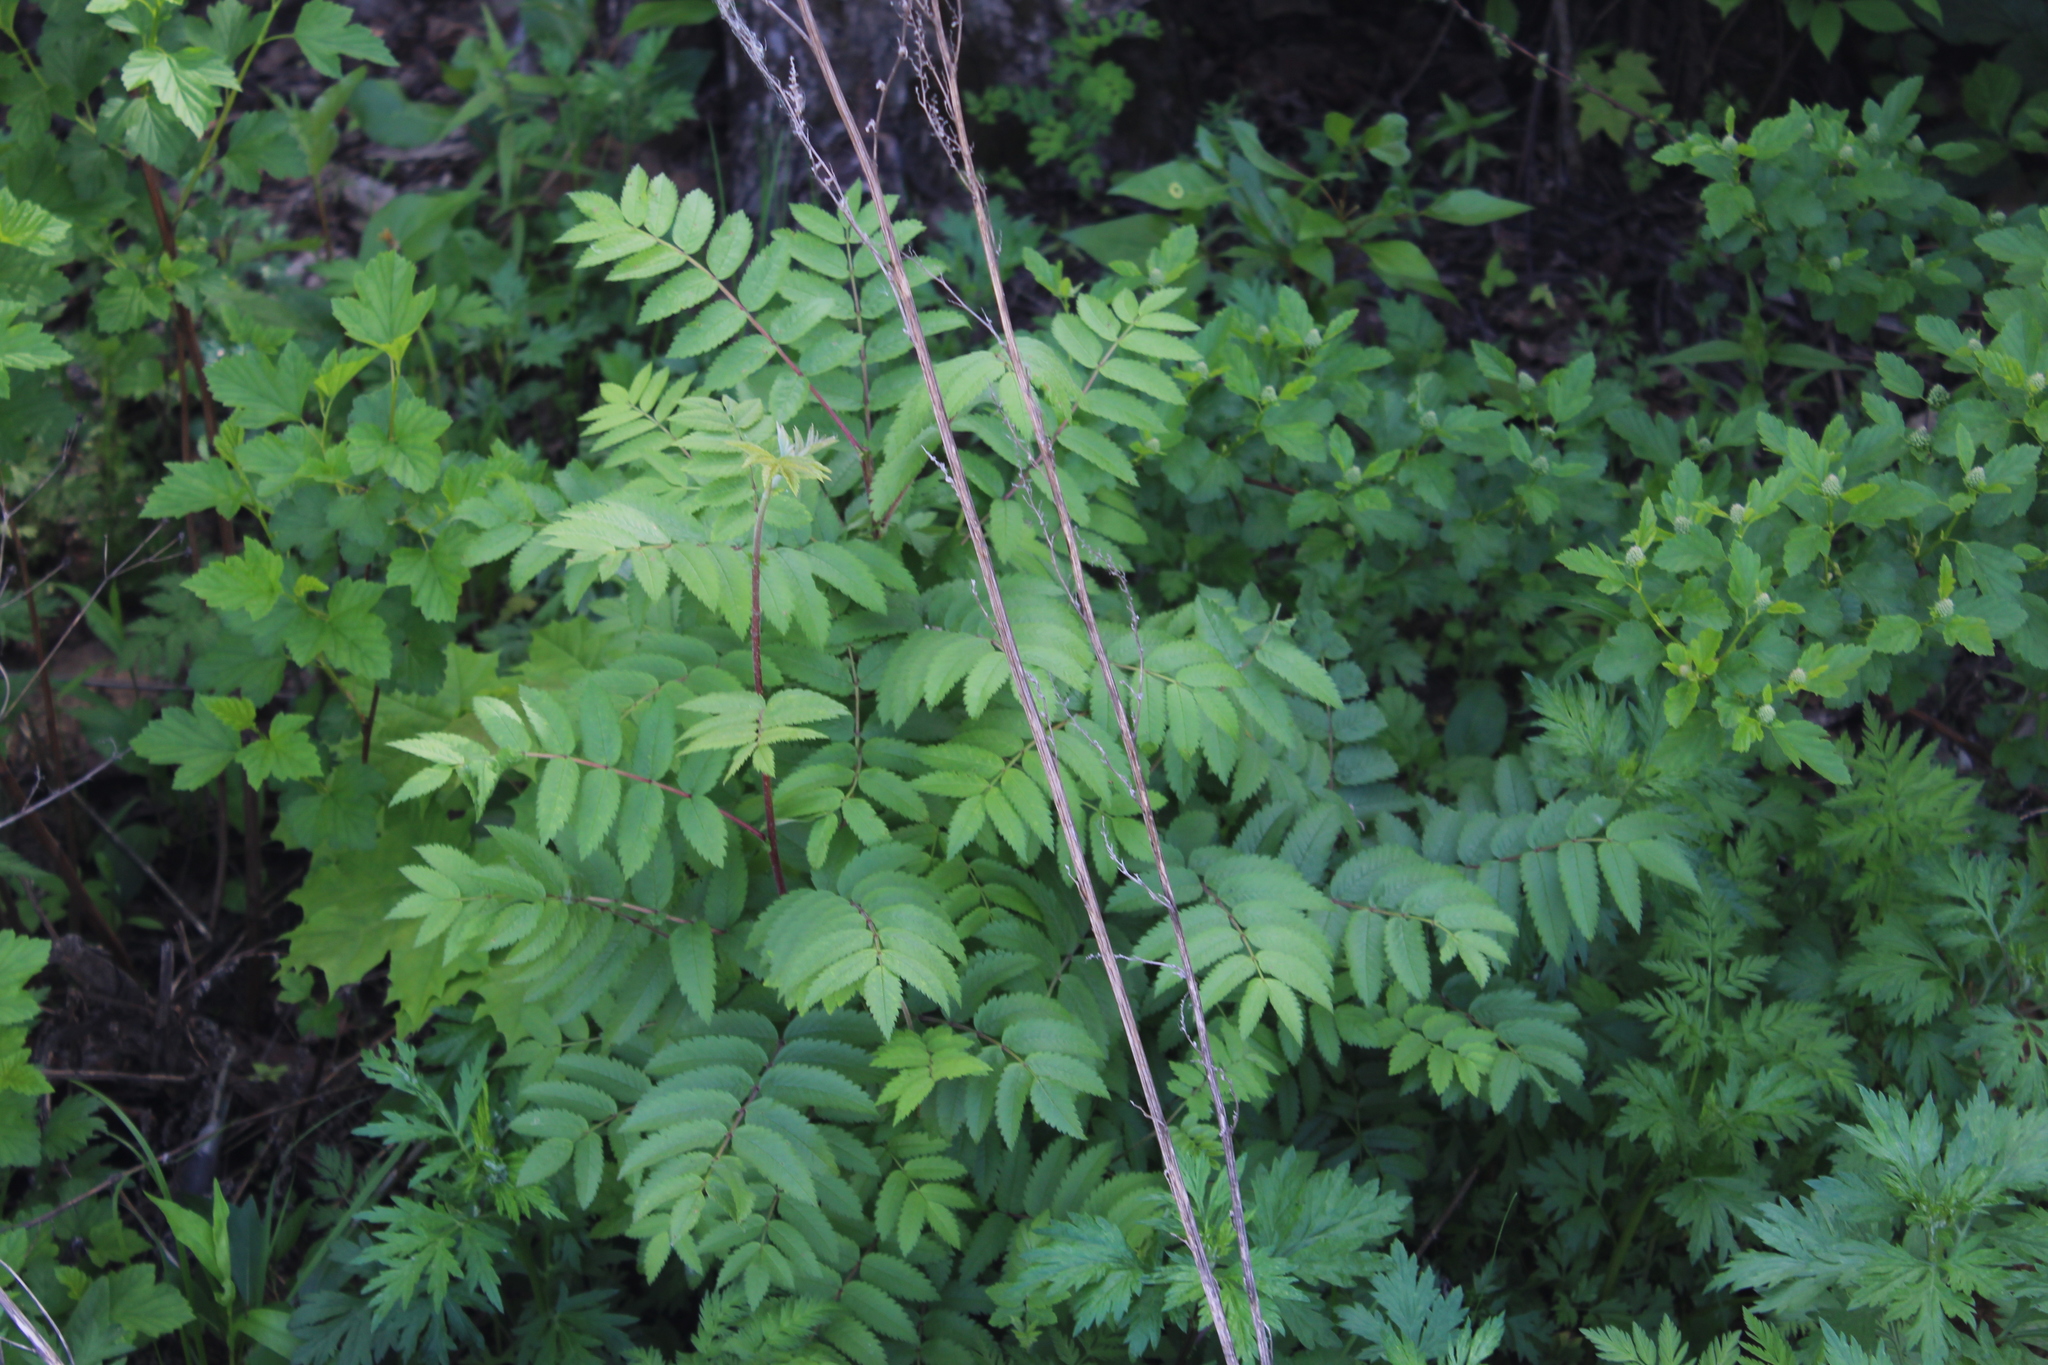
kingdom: Plantae
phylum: Tracheophyta
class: Magnoliopsida
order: Rosales
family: Rosaceae
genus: Sorbus
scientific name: Sorbus aucuparia
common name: Rowan
